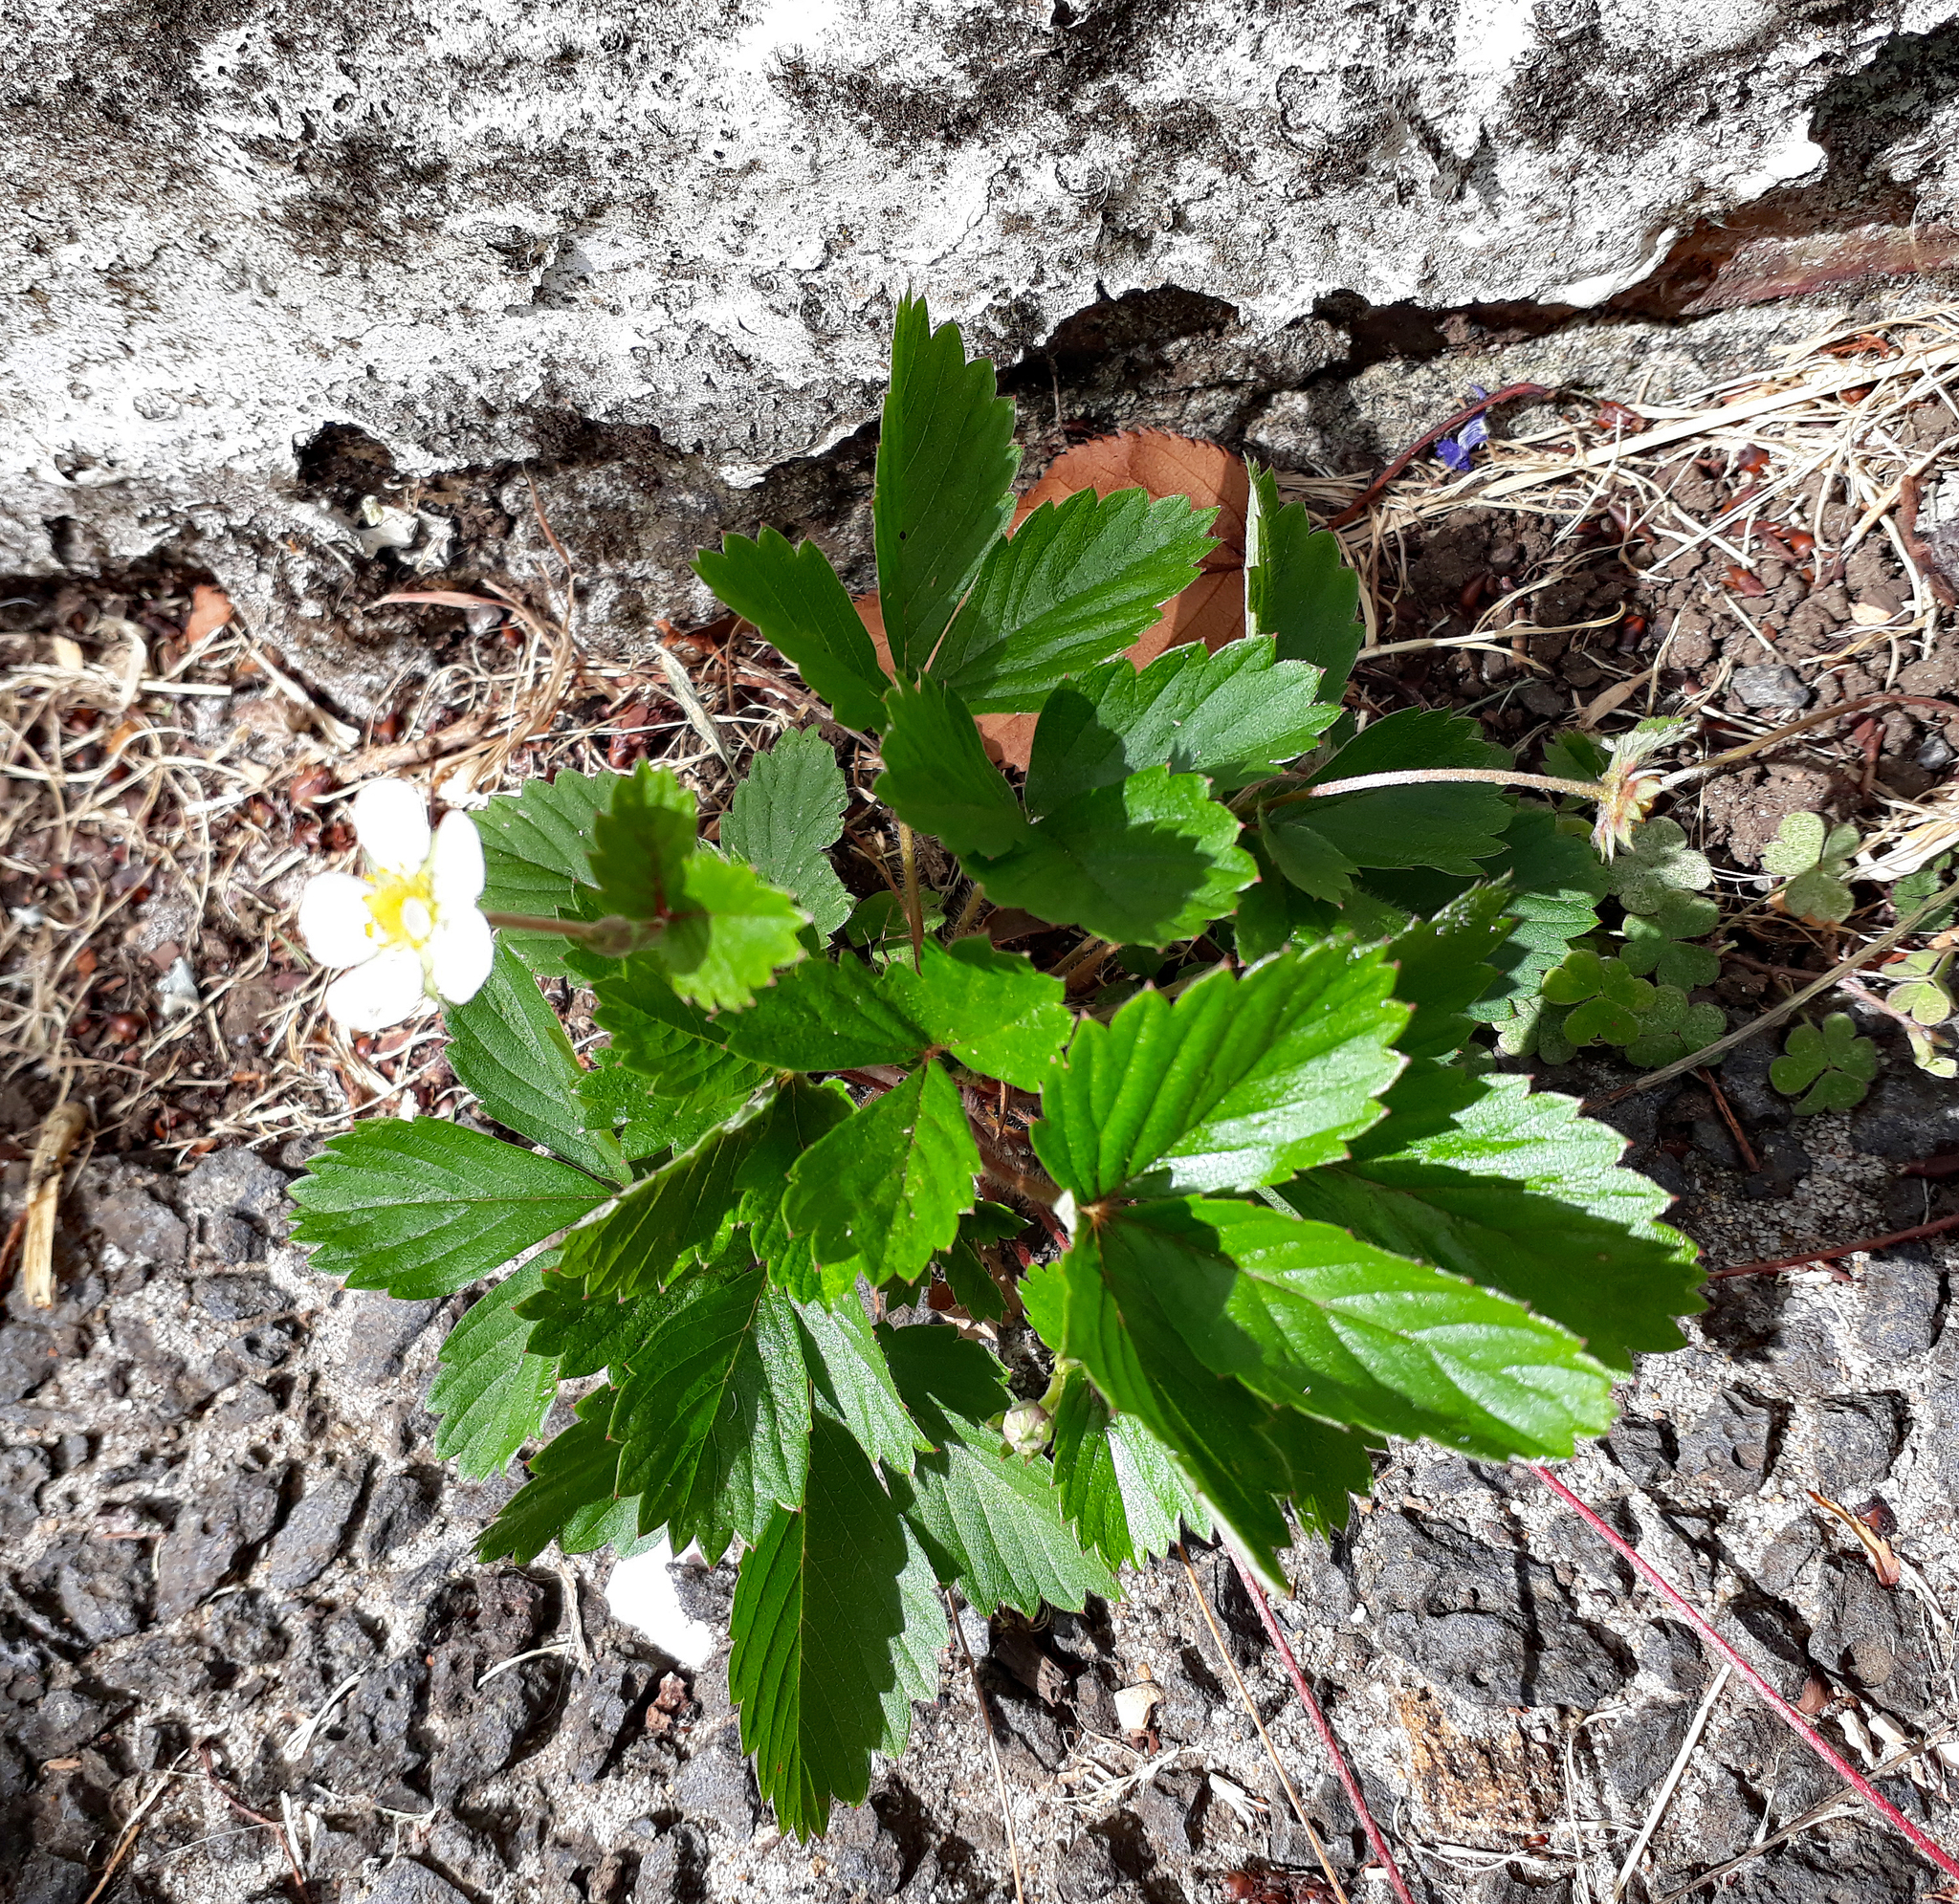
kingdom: Plantae
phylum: Tracheophyta
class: Magnoliopsida
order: Rosales
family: Rosaceae
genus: Fragaria
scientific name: Fragaria vesca
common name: Wild strawberry
